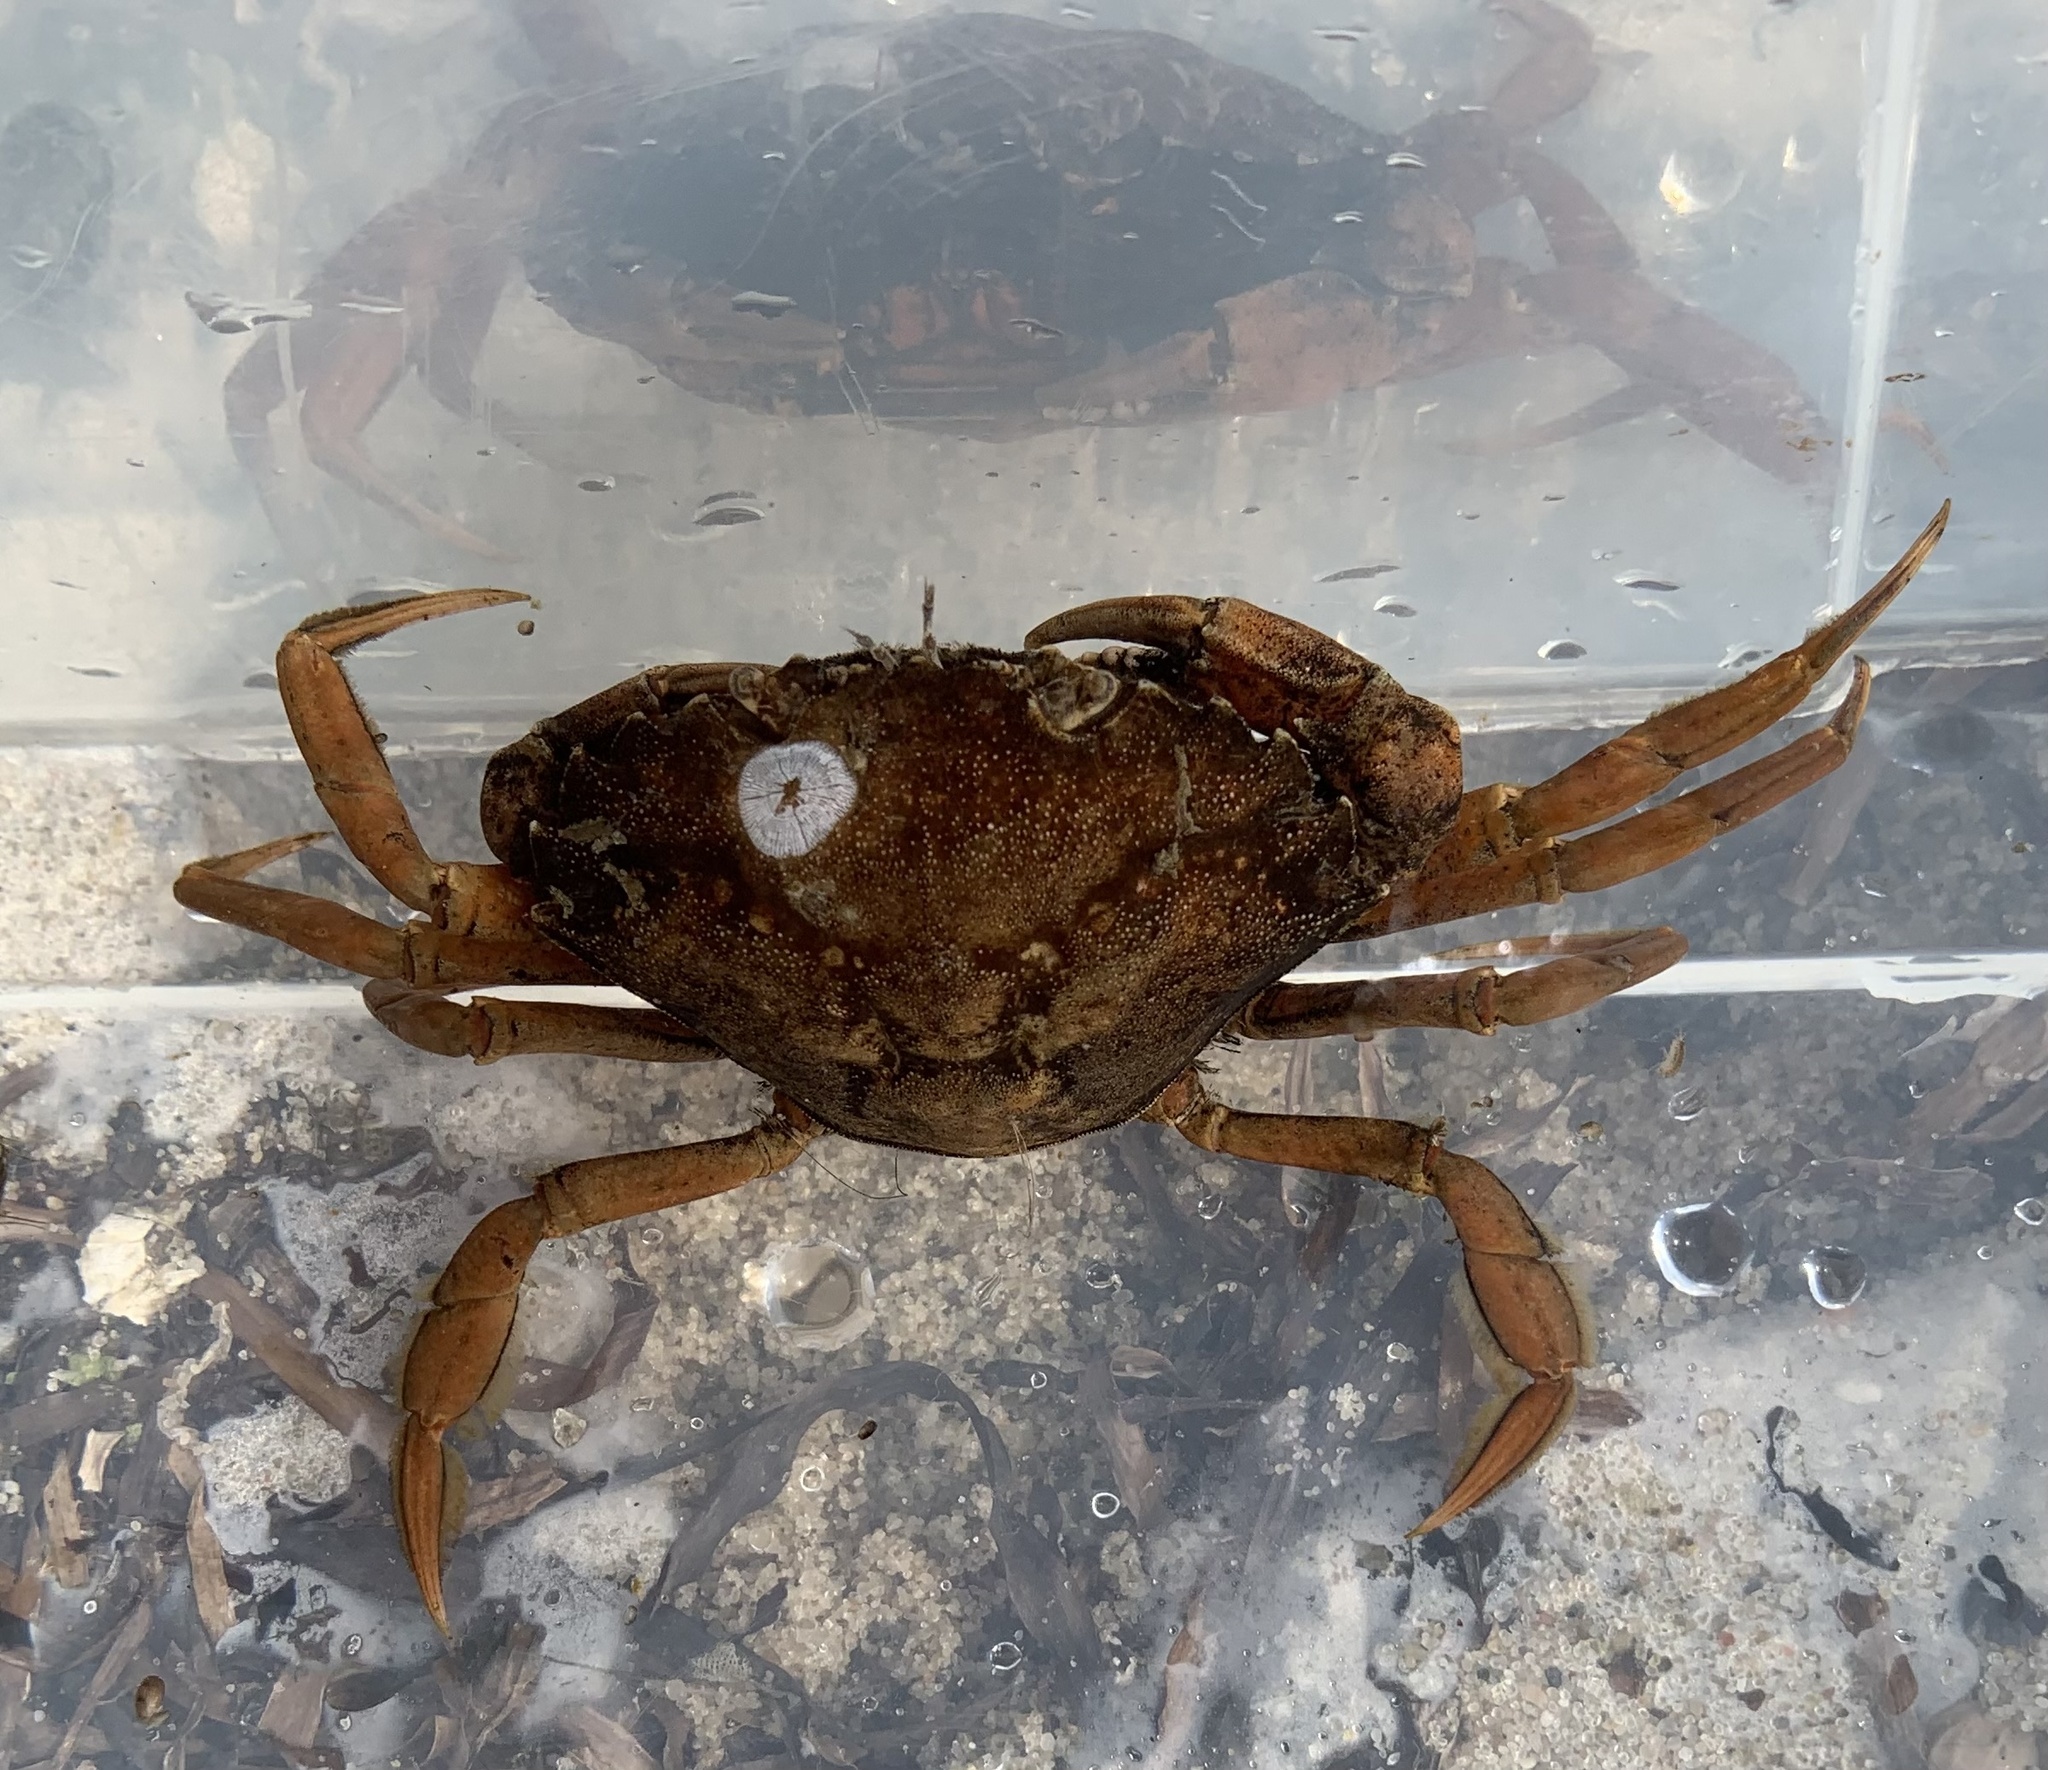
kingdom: Animalia
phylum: Arthropoda
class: Malacostraca
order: Decapoda
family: Carcinidae
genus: Carcinus
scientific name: Carcinus maenas
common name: European green crab
